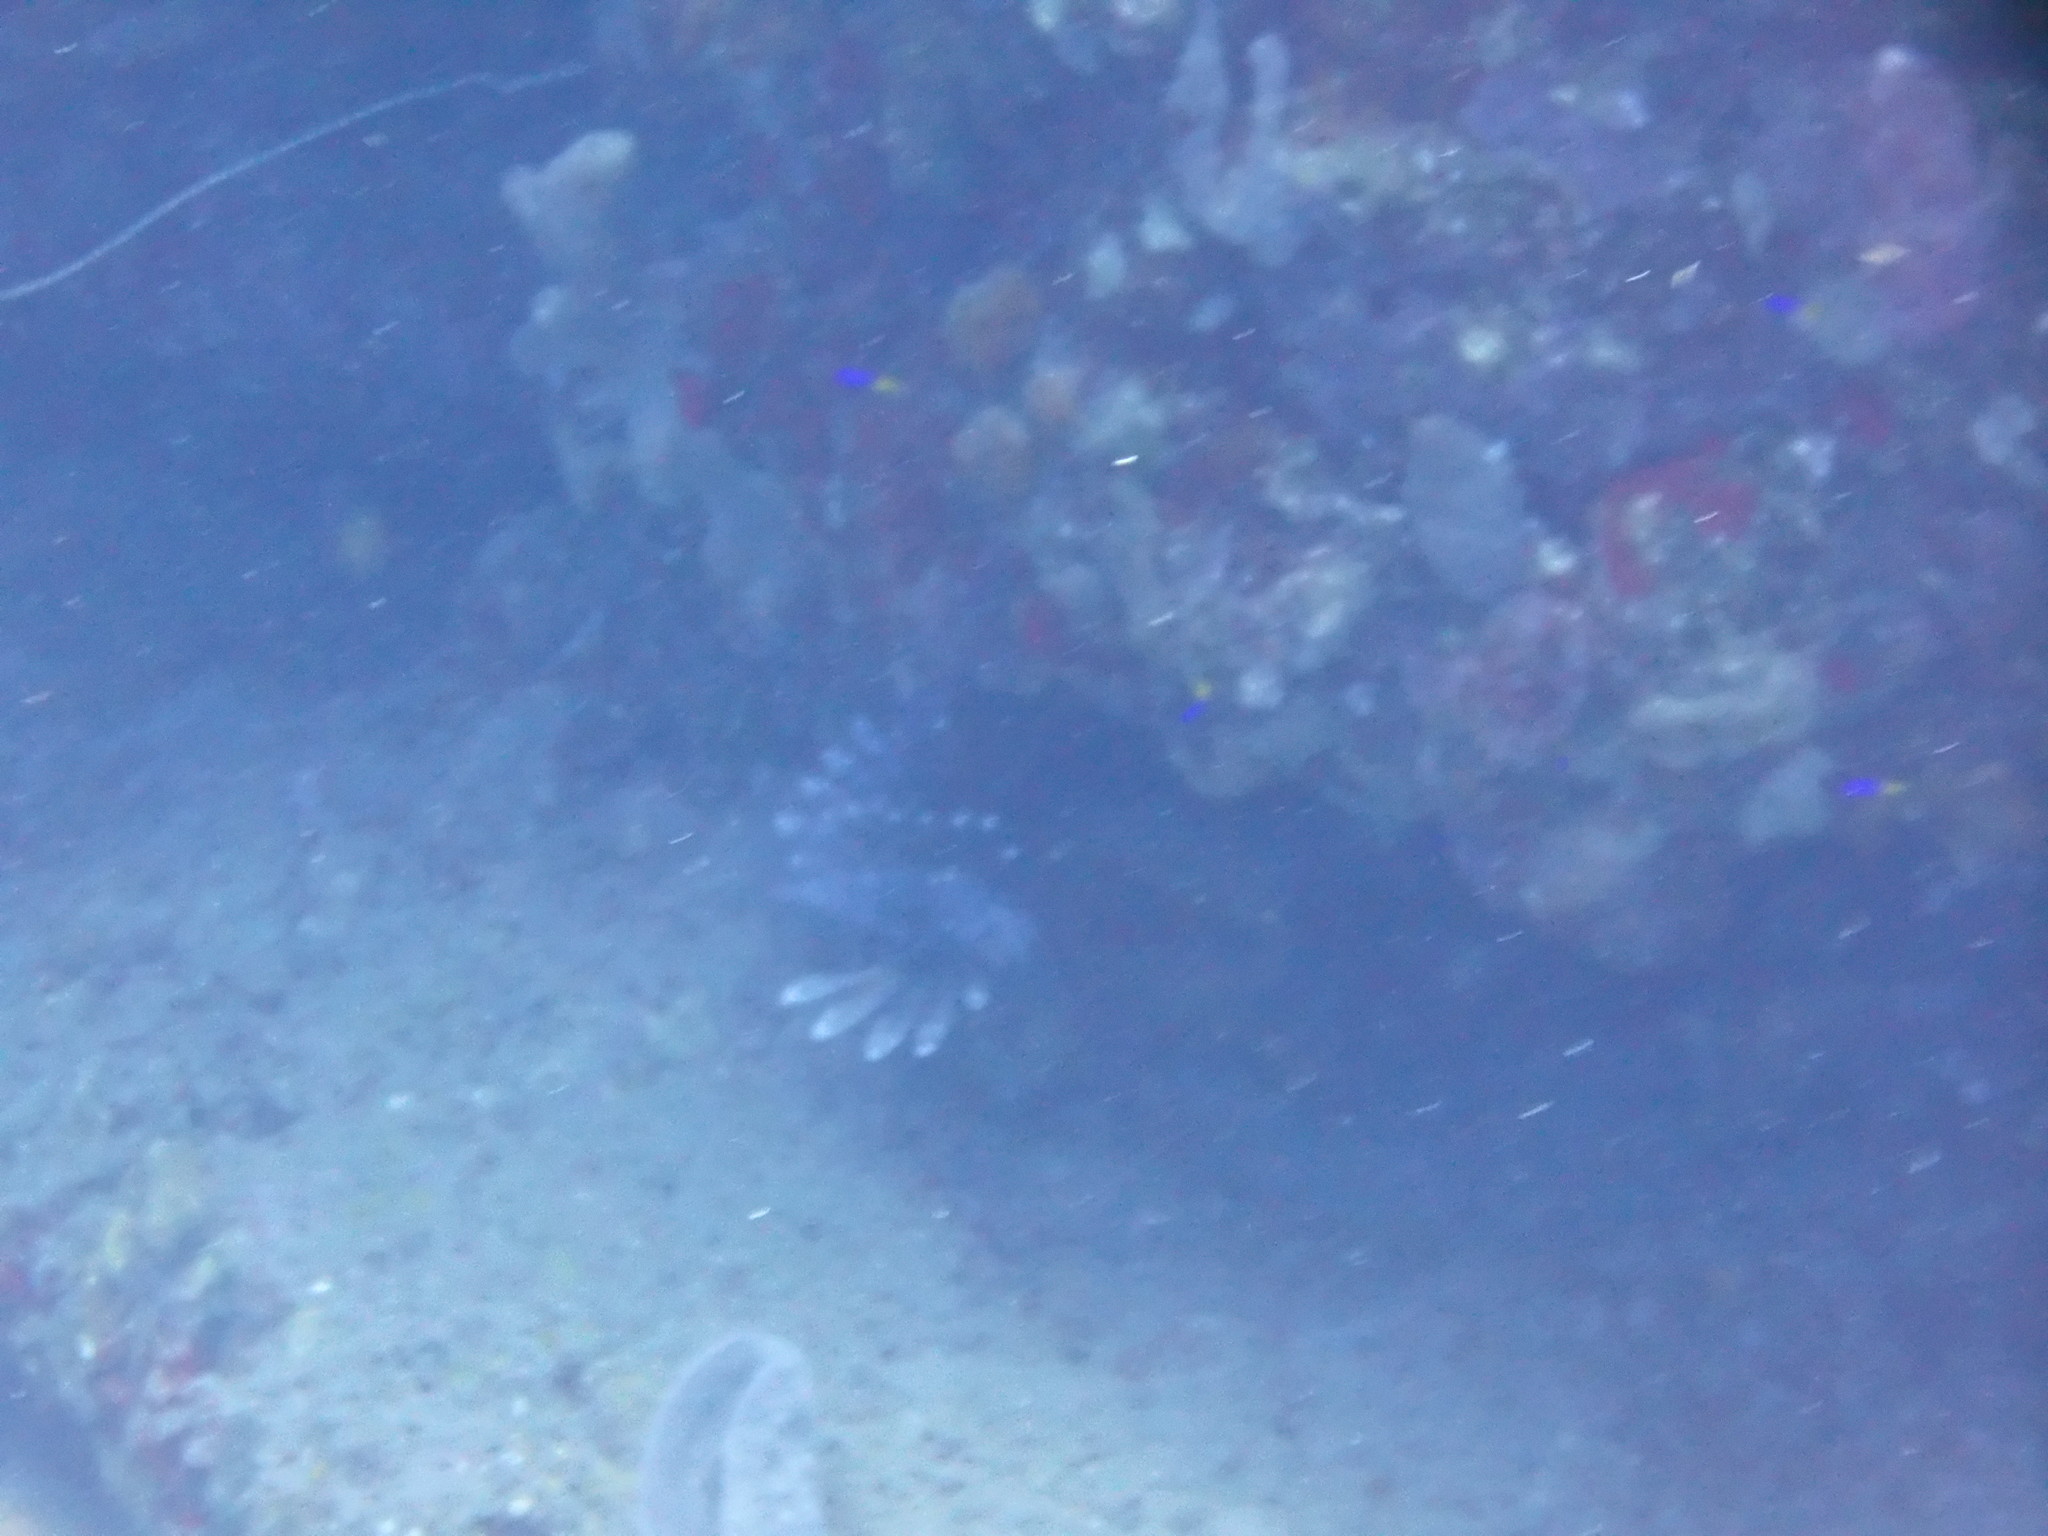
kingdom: Animalia
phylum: Chordata
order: Scorpaeniformes
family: Scorpaenidae
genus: Pterois
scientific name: Pterois volitans
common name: Lionfish
